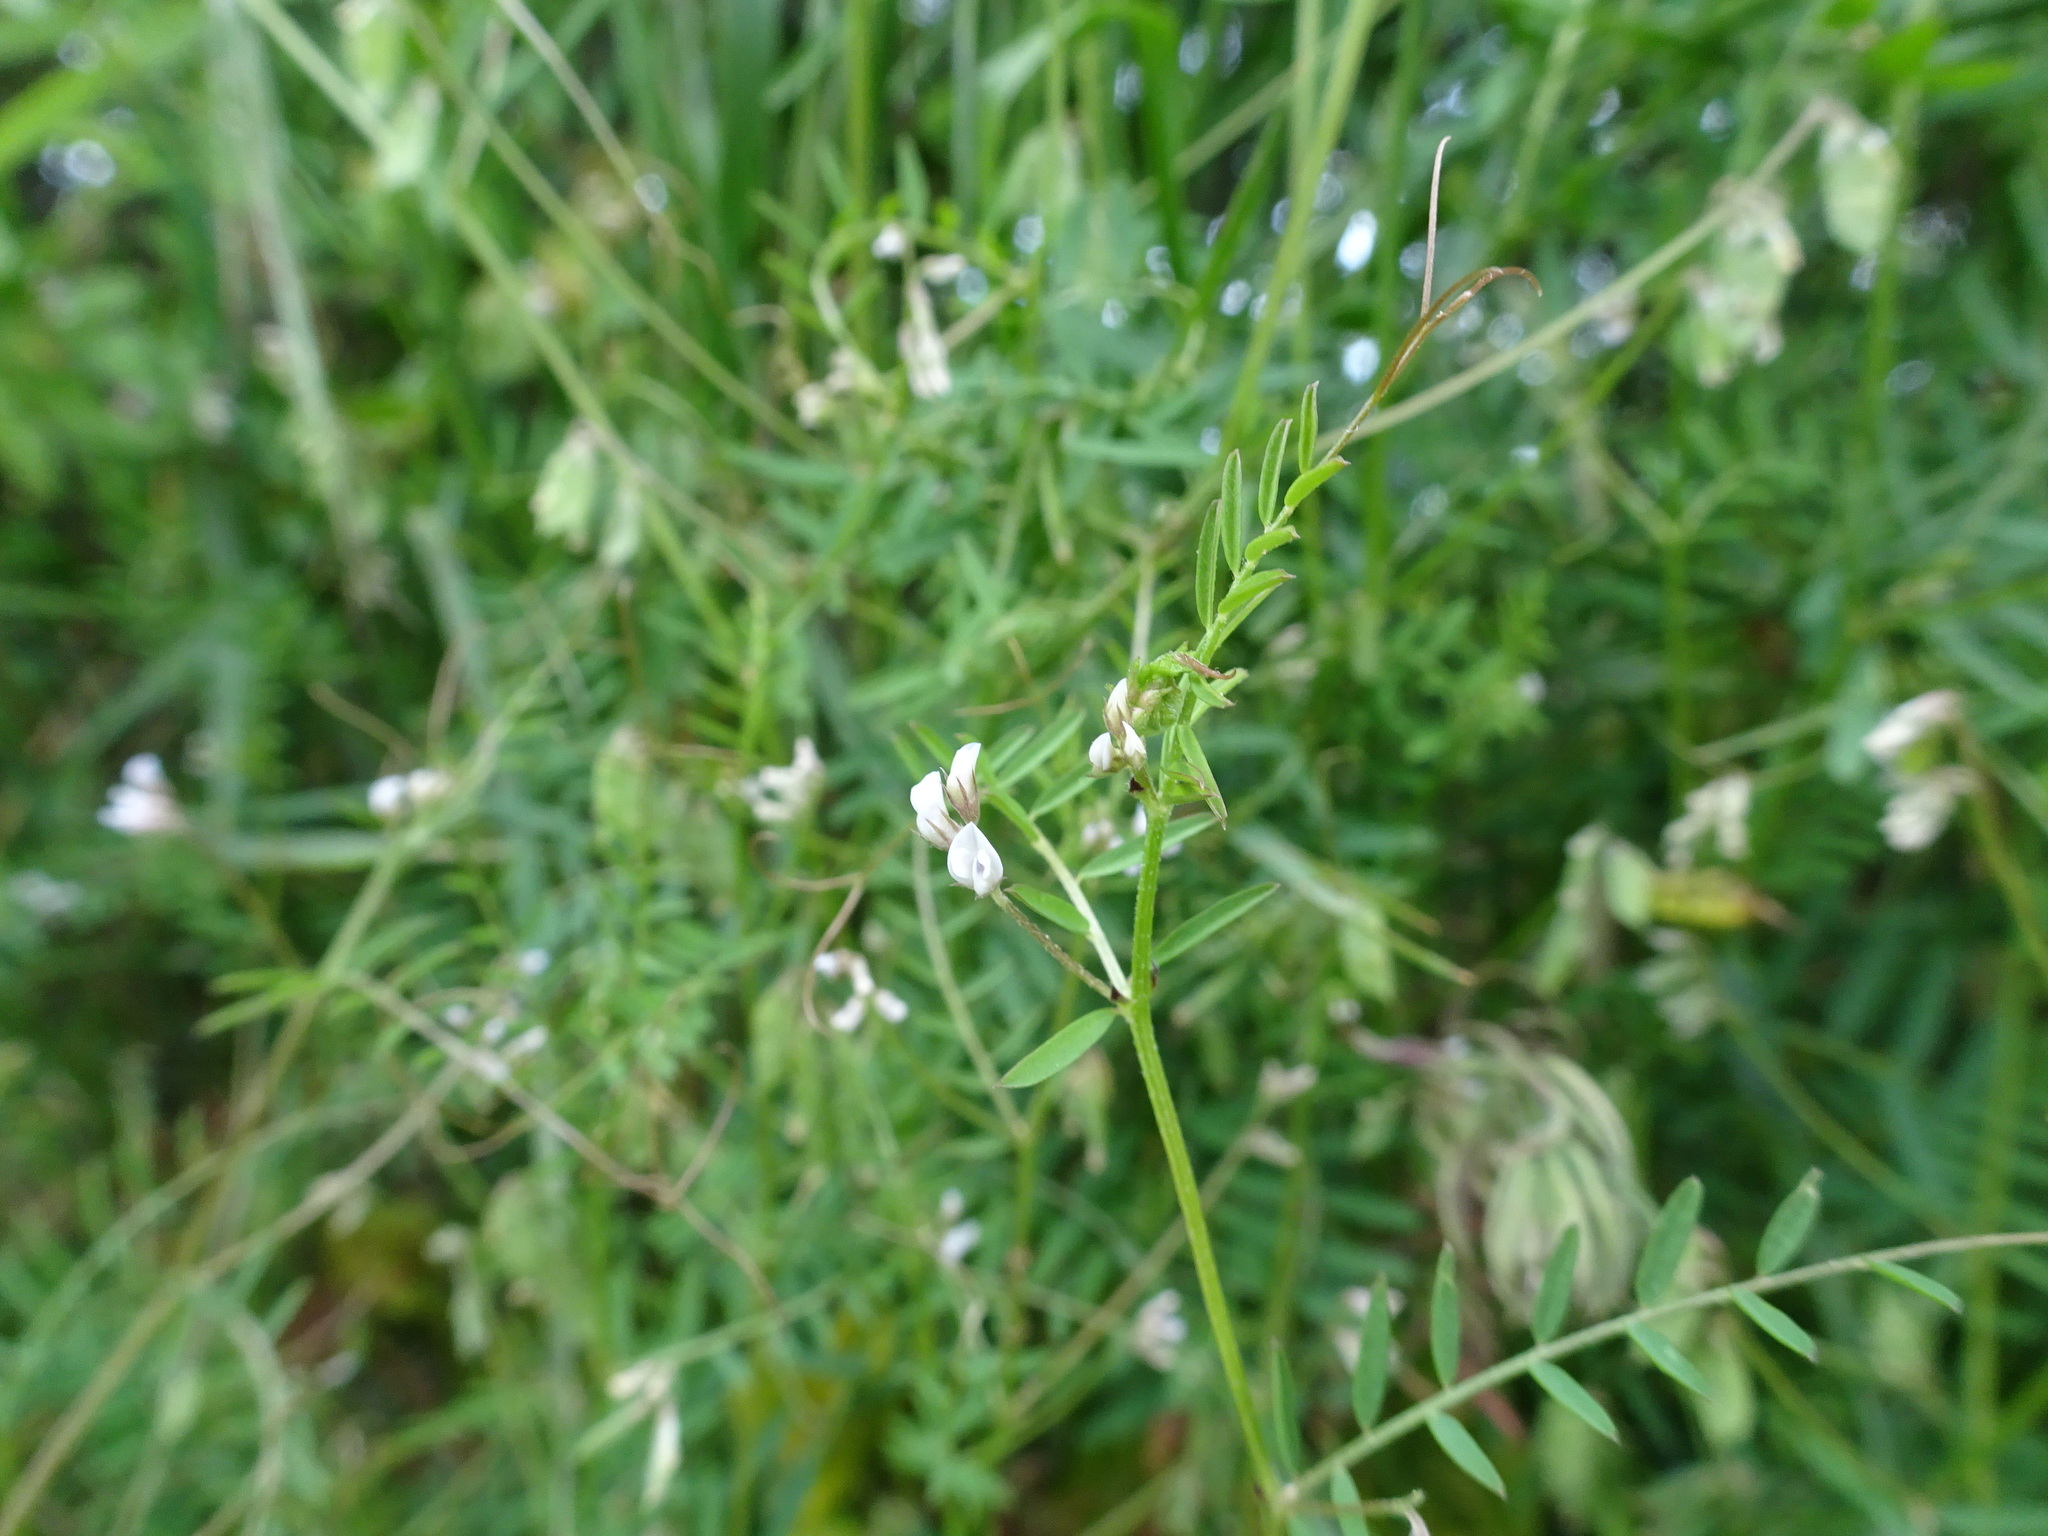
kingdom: Plantae
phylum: Tracheophyta
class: Magnoliopsida
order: Fabales
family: Fabaceae
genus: Vicia
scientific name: Vicia hirsuta
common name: Tiny vetch
